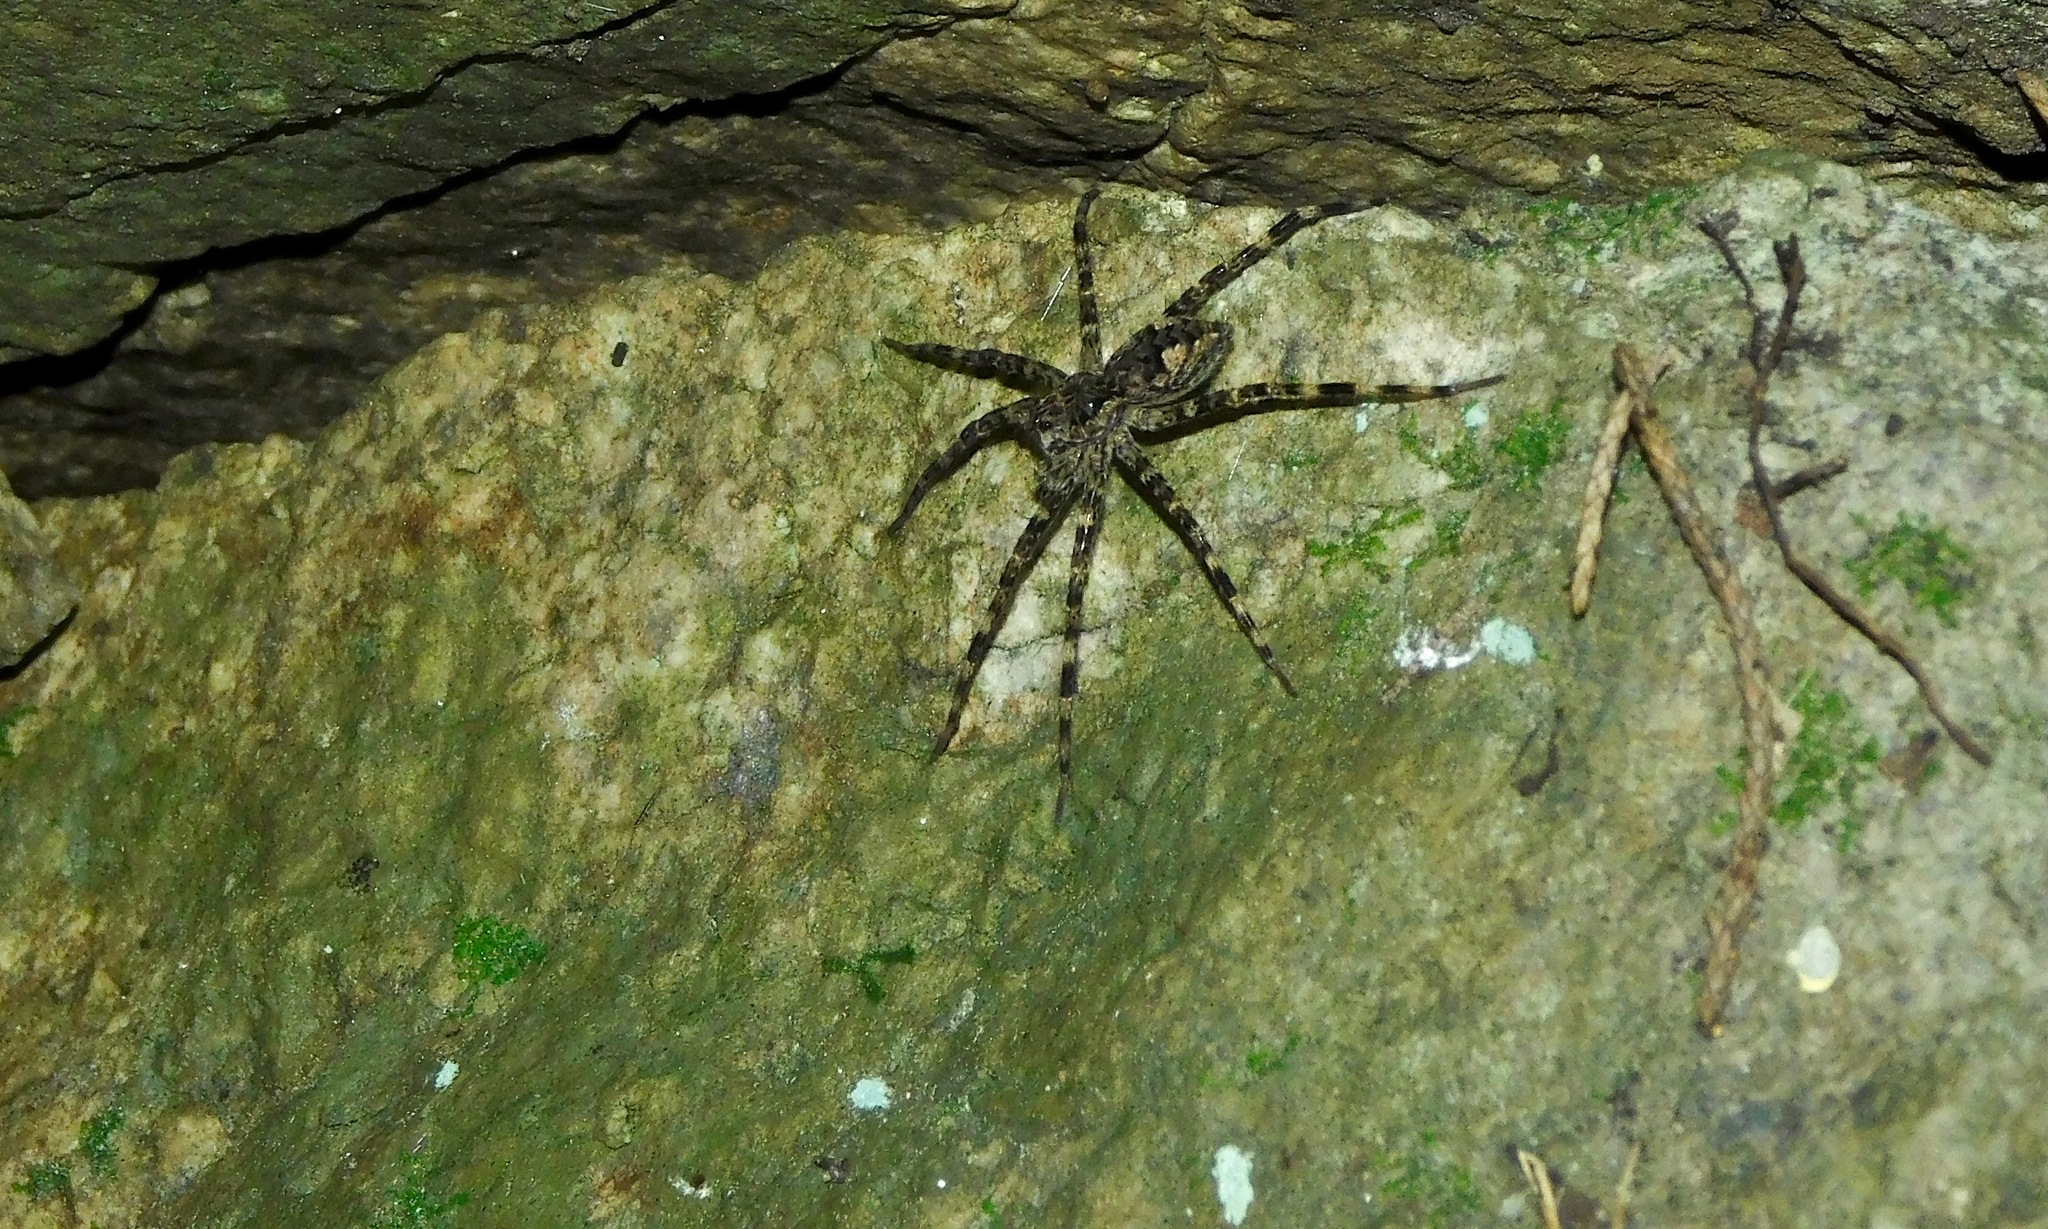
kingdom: Animalia
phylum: Arthropoda
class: Arachnida
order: Araneae
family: Pisauridae
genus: Dolomedes
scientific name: Dolomedes tenebrosus
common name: Dark fishing spider
